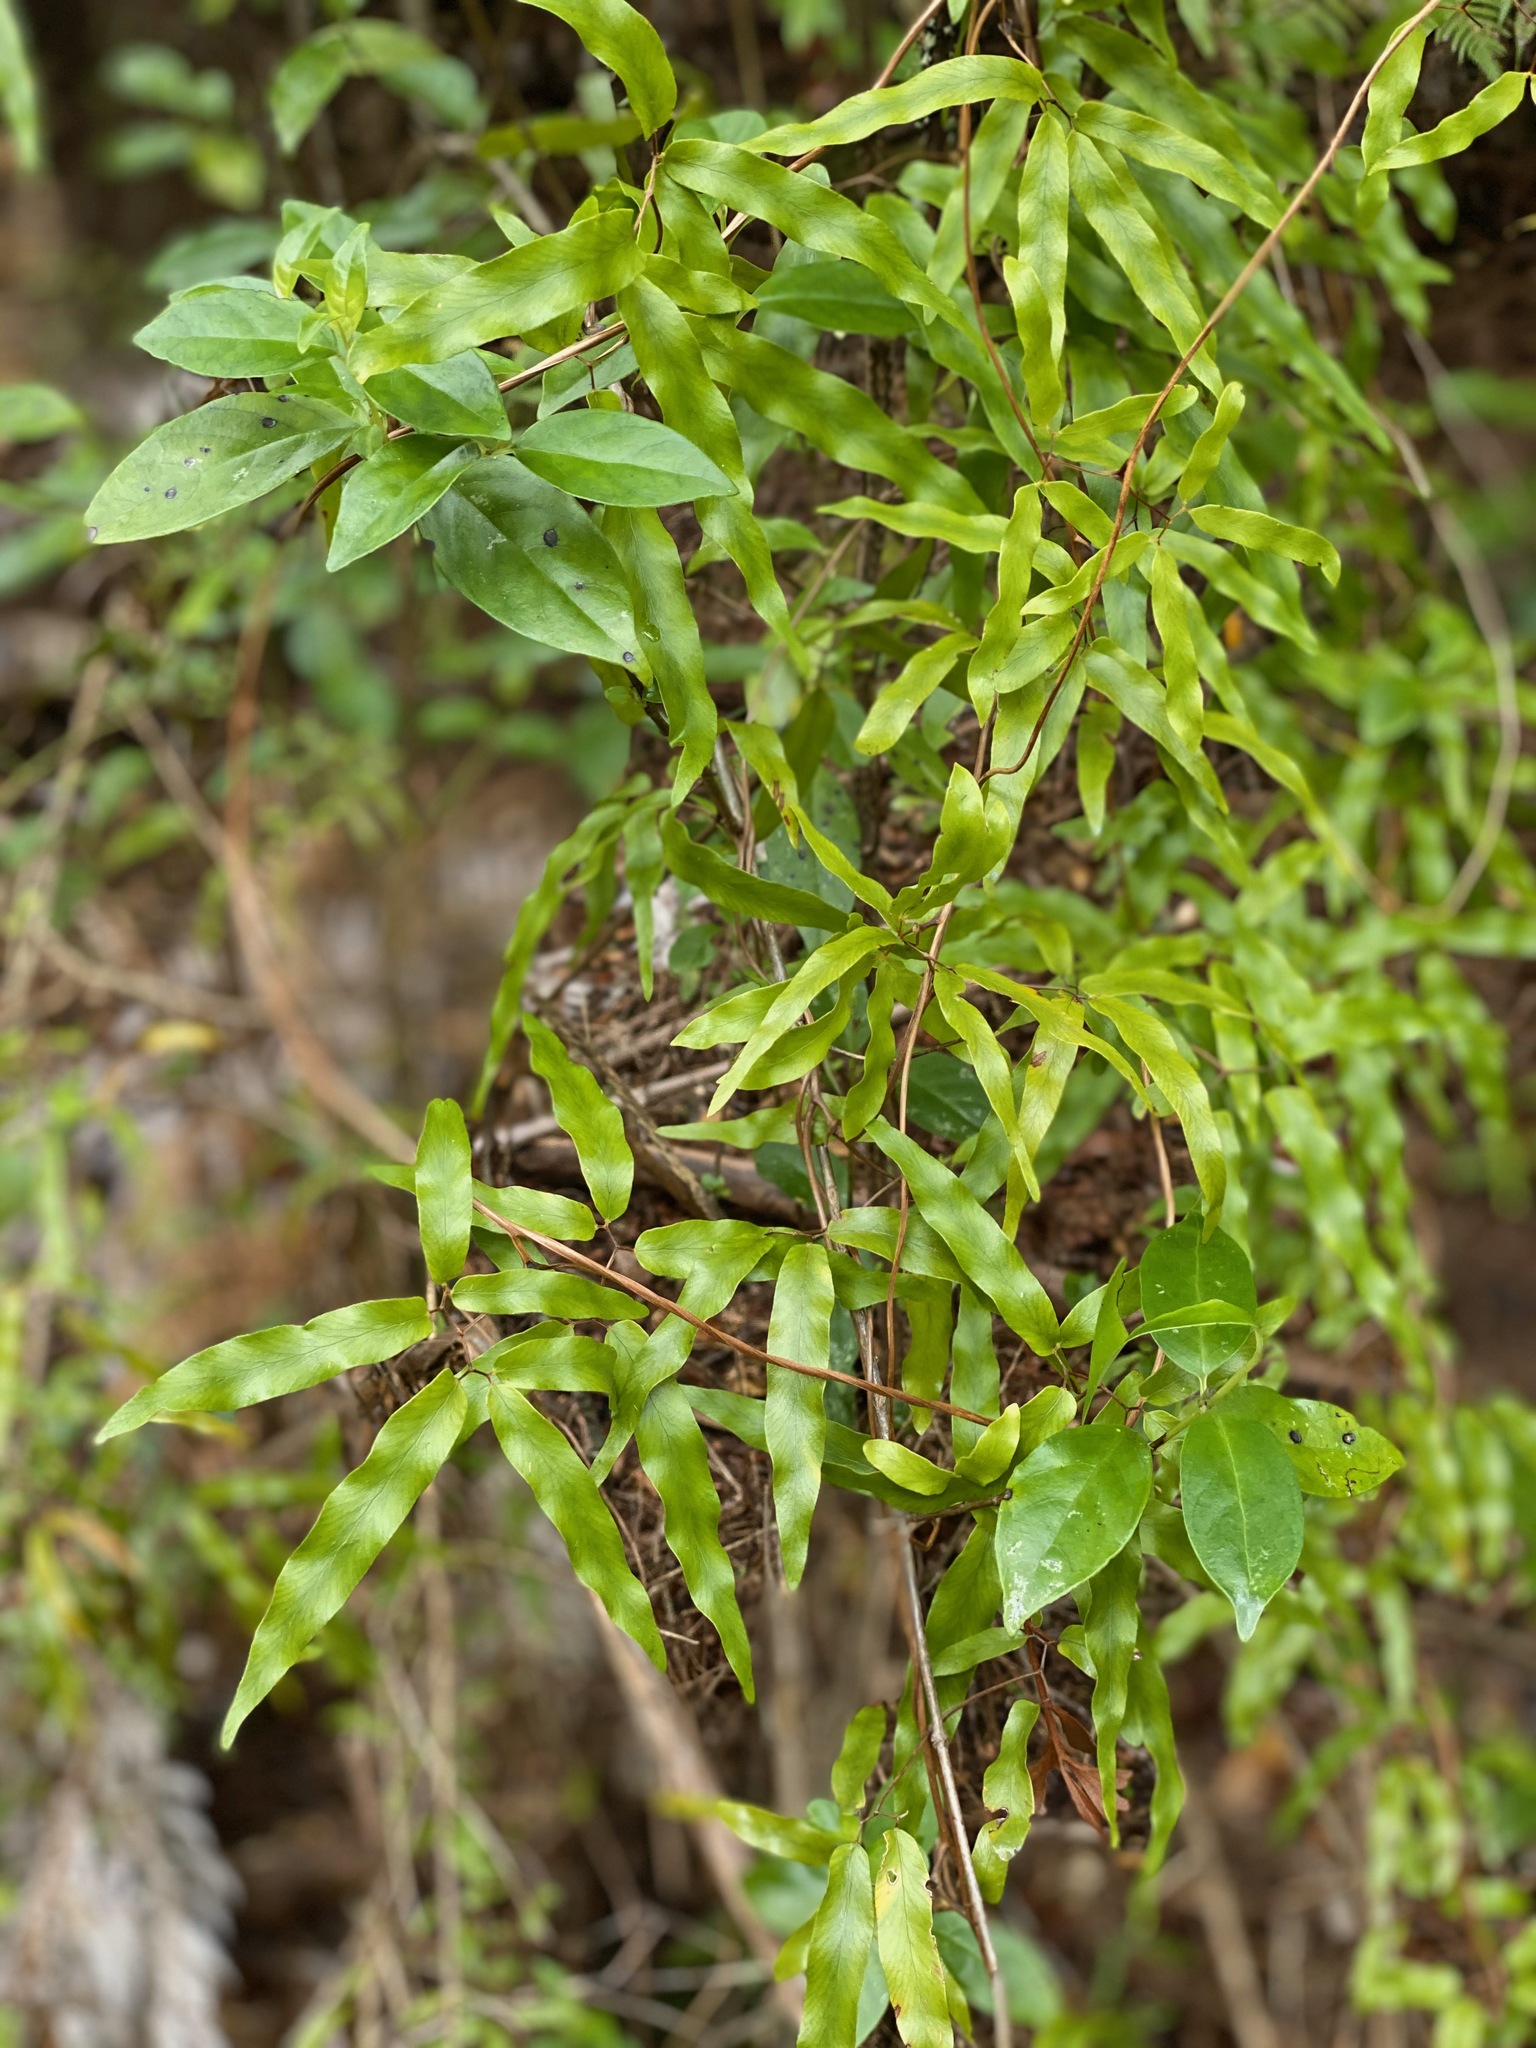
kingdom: Plantae
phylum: Tracheophyta
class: Polypodiopsida
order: Schizaeales
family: Lygodiaceae
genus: Lygodium
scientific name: Lygodium articulatum
